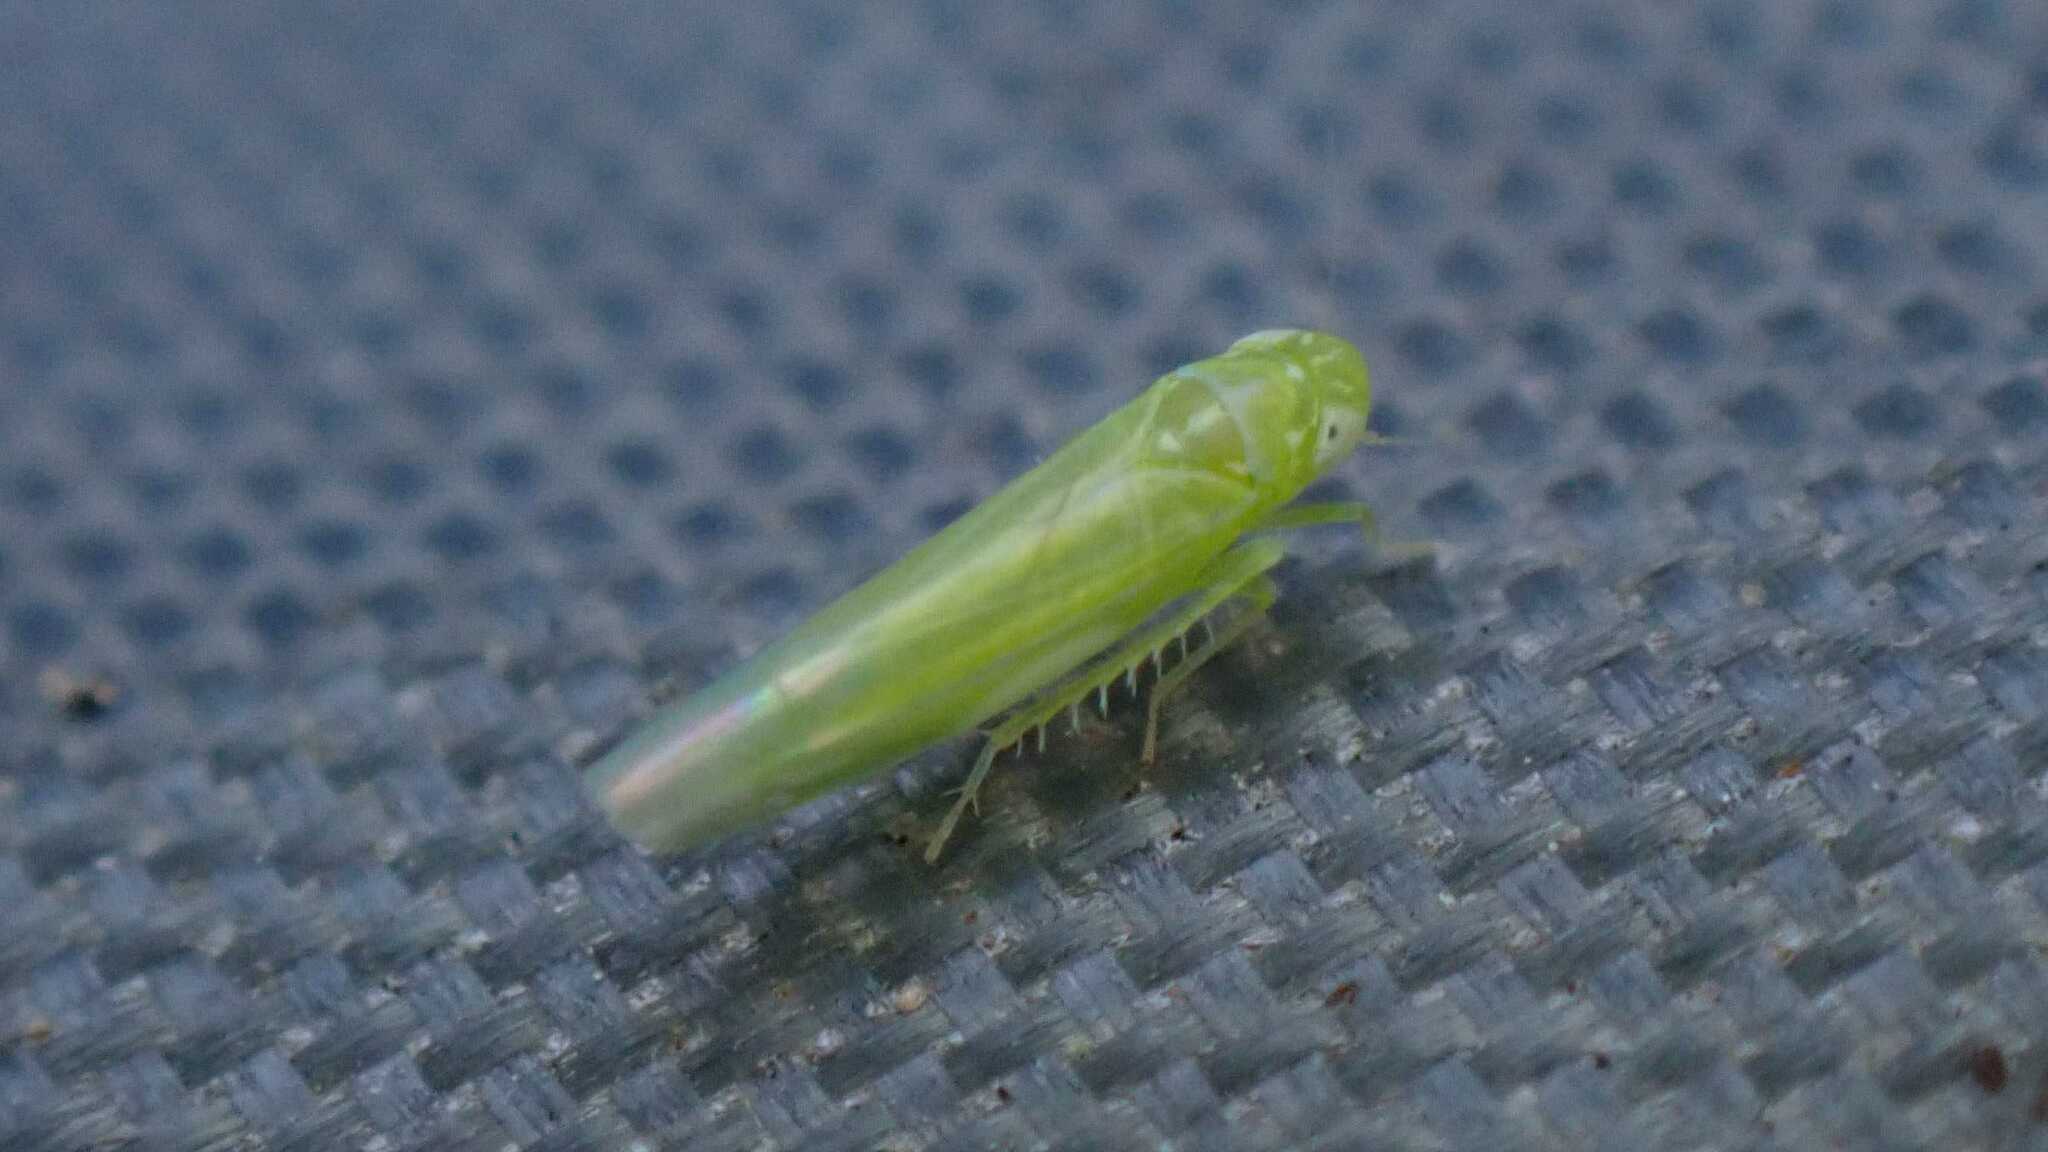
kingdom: Animalia
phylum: Arthropoda
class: Insecta
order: Hemiptera
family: Cicadellidae
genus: Hebata
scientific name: Hebata vitis
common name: The smaller green leafhopper
